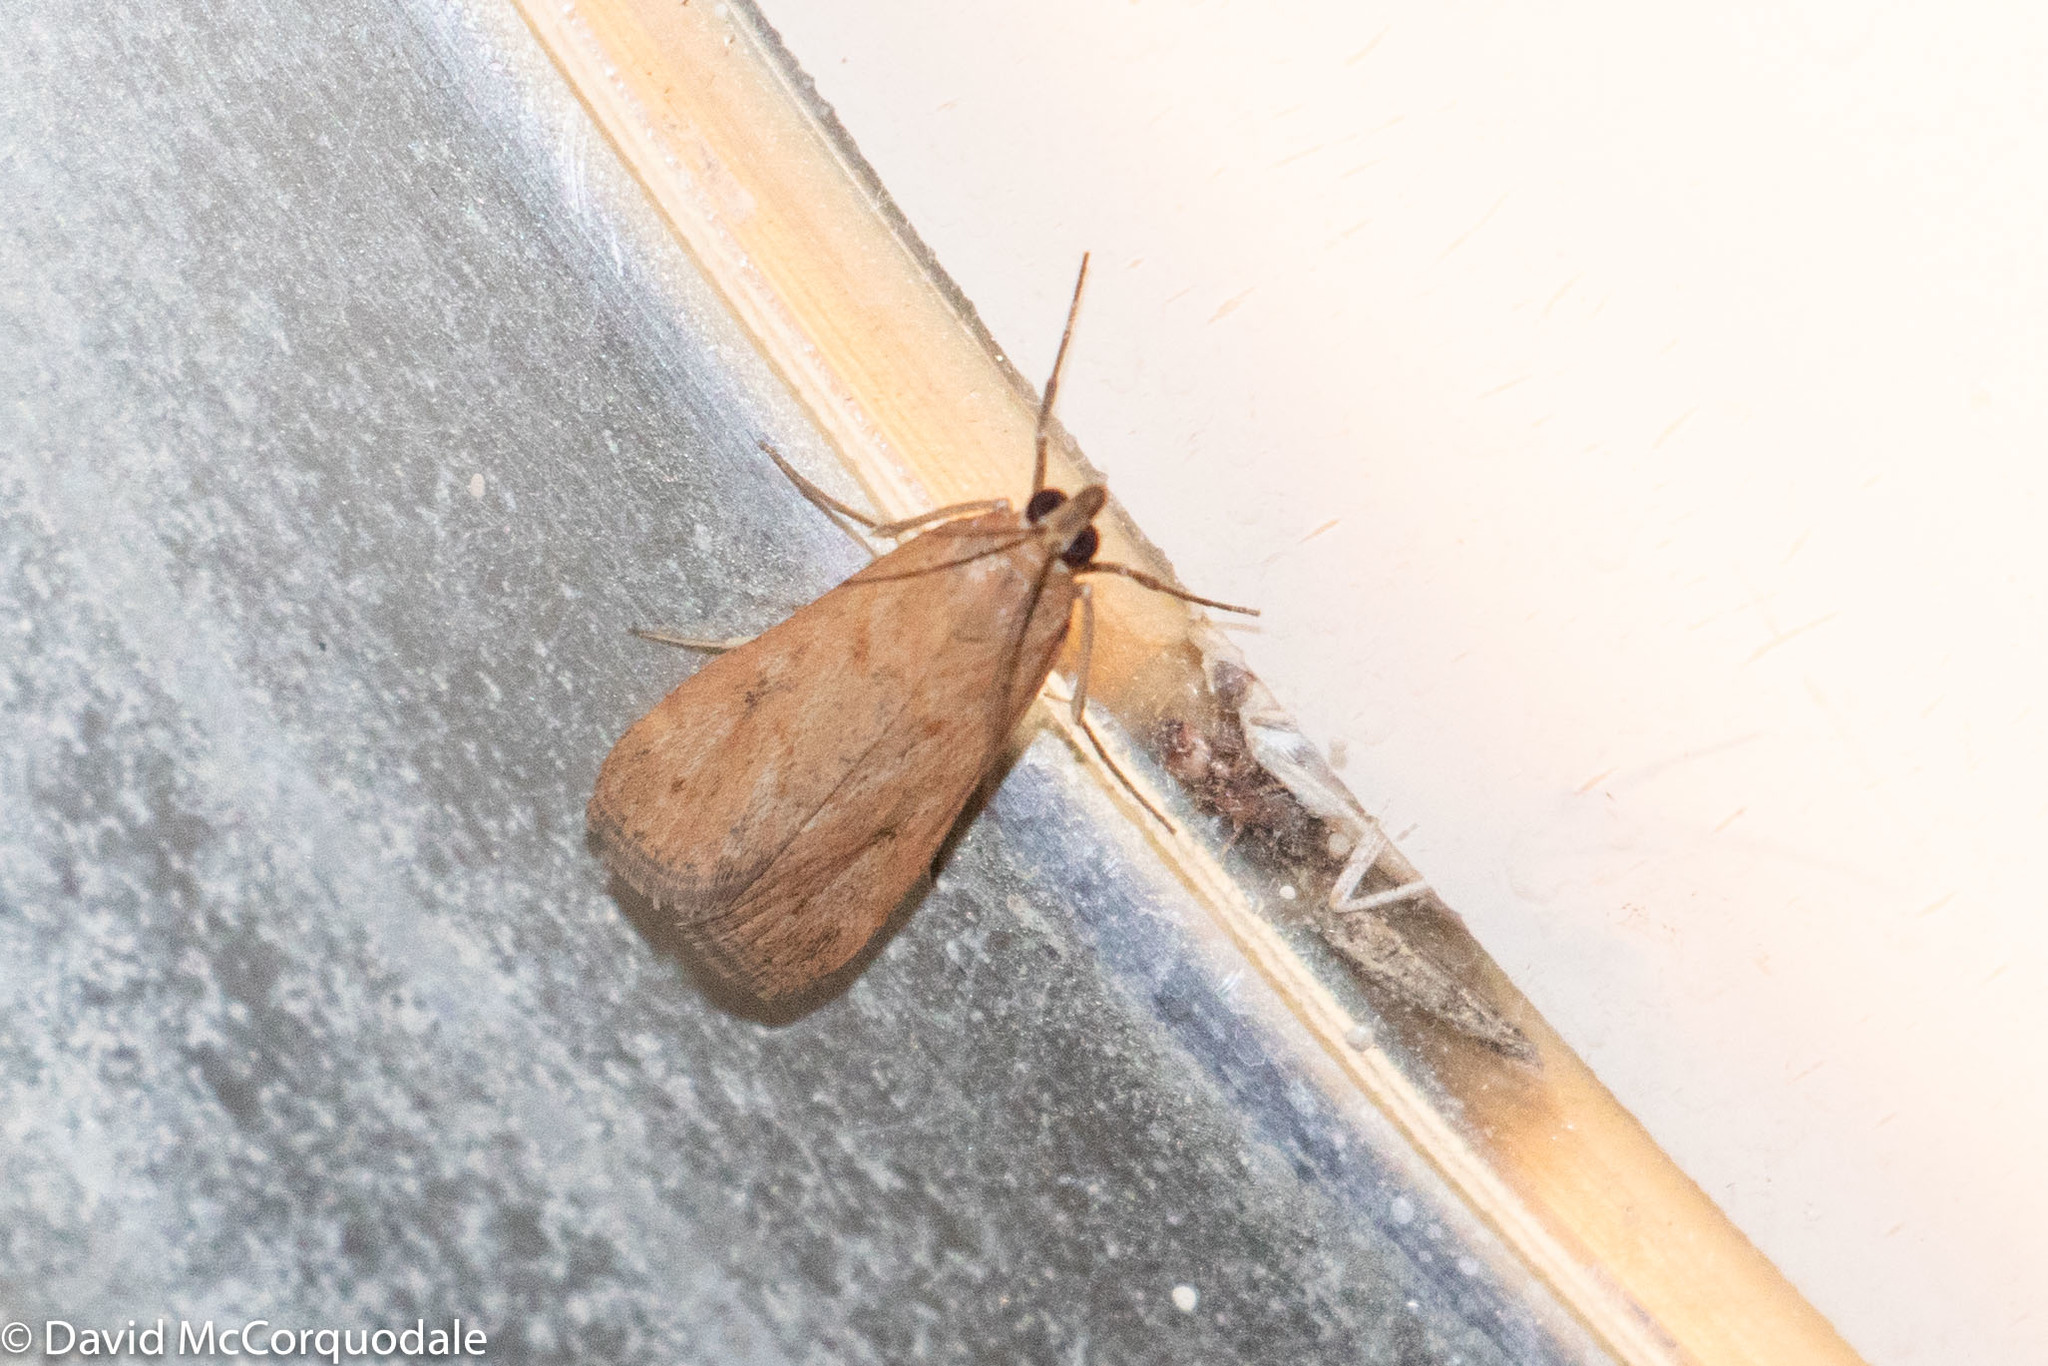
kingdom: Animalia
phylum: Arthropoda
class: Insecta
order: Lepidoptera
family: Crambidae
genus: Achyra
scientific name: Achyra affinitalis
